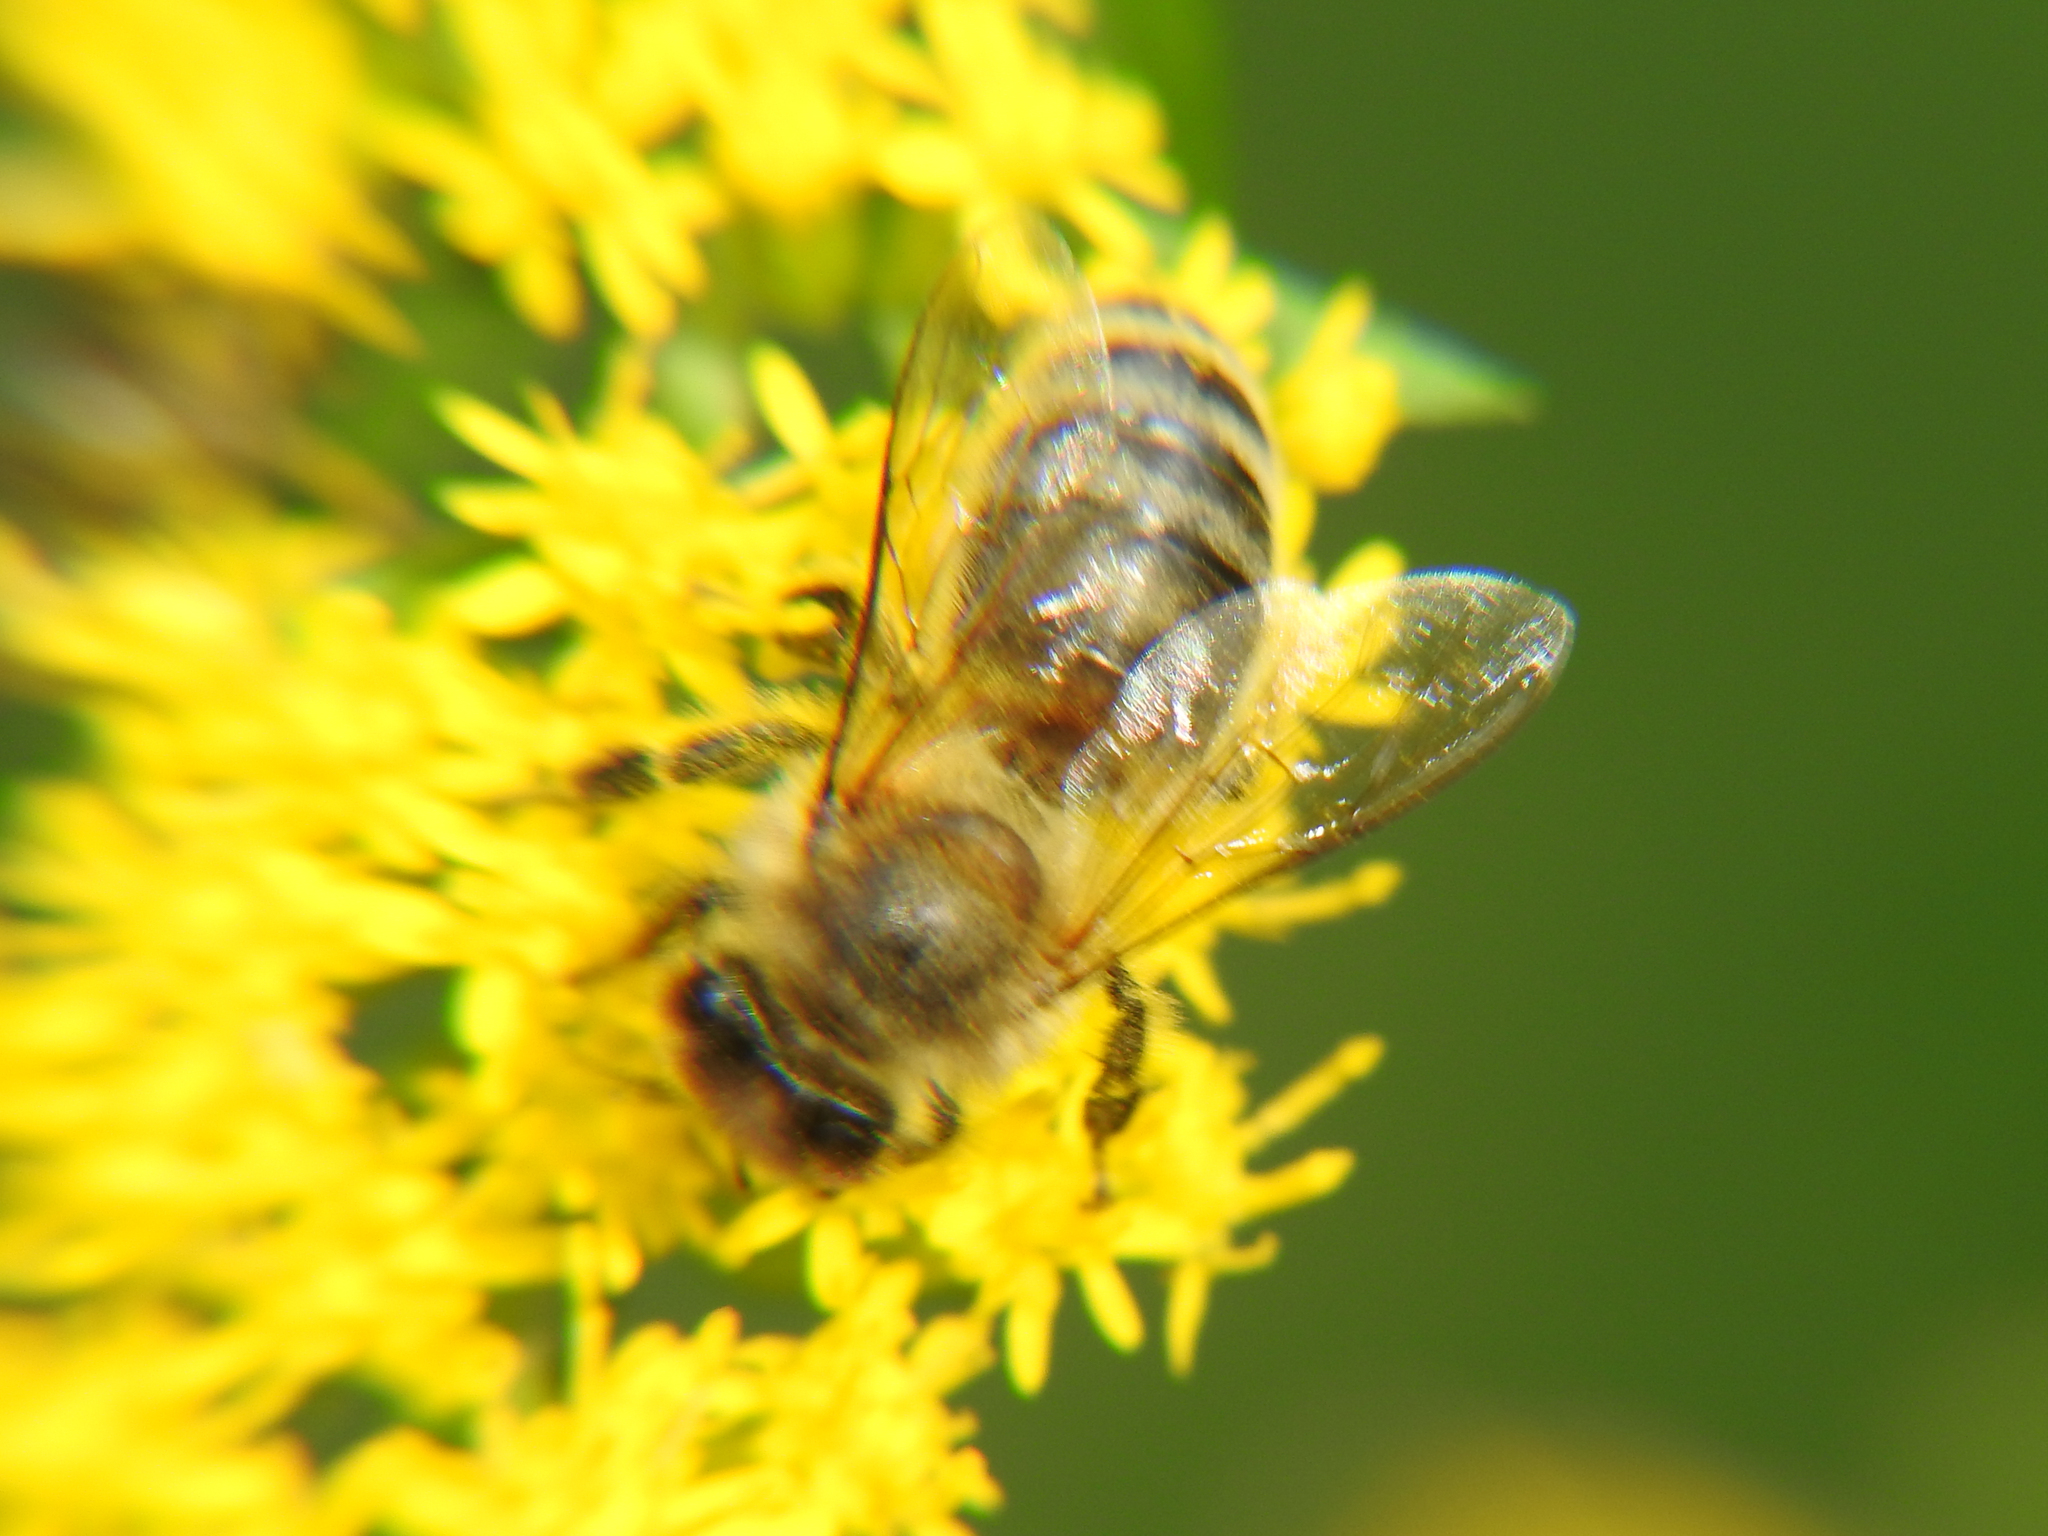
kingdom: Animalia
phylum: Arthropoda
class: Insecta
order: Hymenoptera
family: Apidae
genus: Apis
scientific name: Apis mellifera
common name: Honey bee
